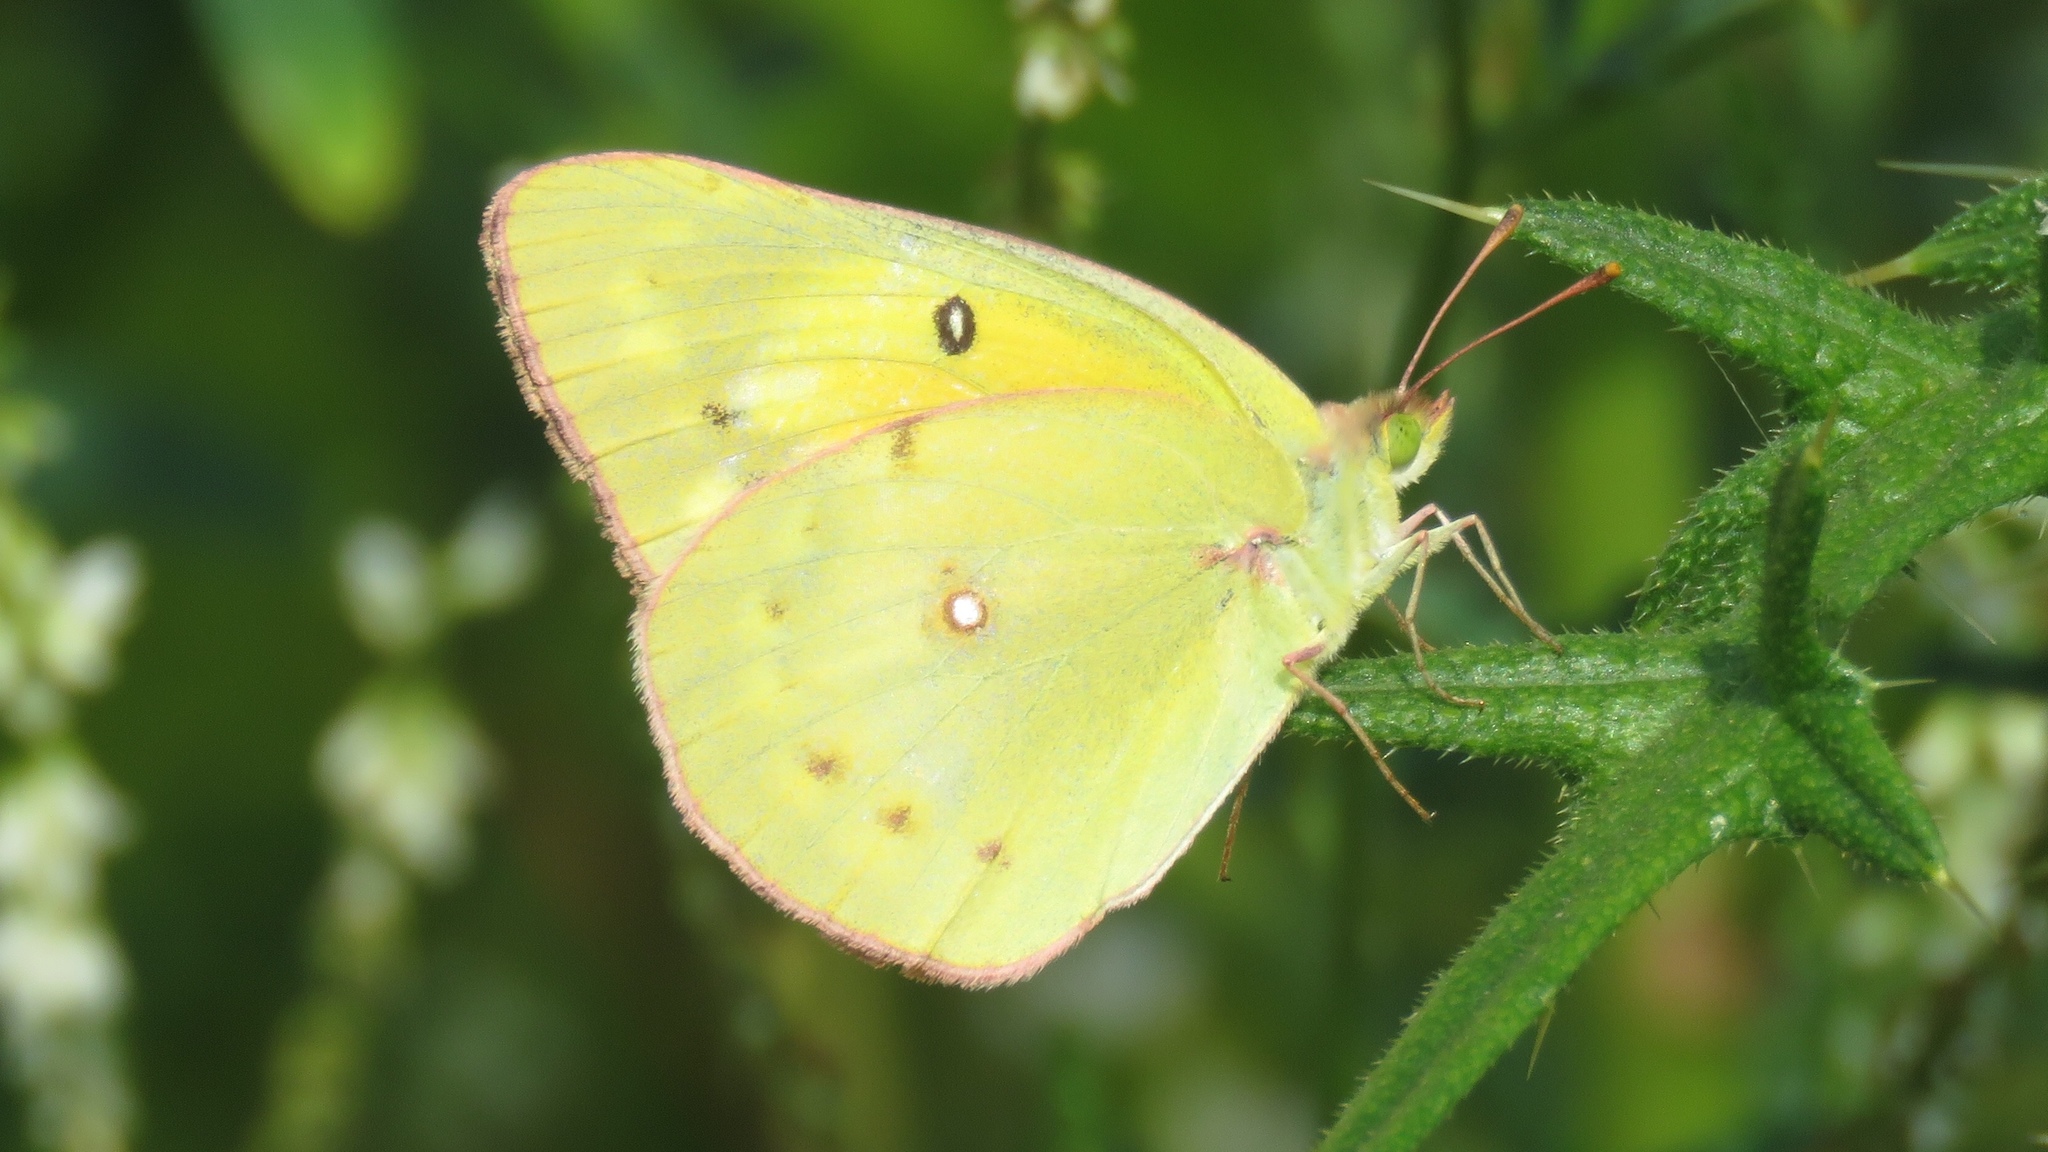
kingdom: Animalia
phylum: Arthropoda
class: Insecta
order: Lepidoptera
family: Pieridae
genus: Colias
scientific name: Colias eurytheme
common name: Alfalfa butterfly
